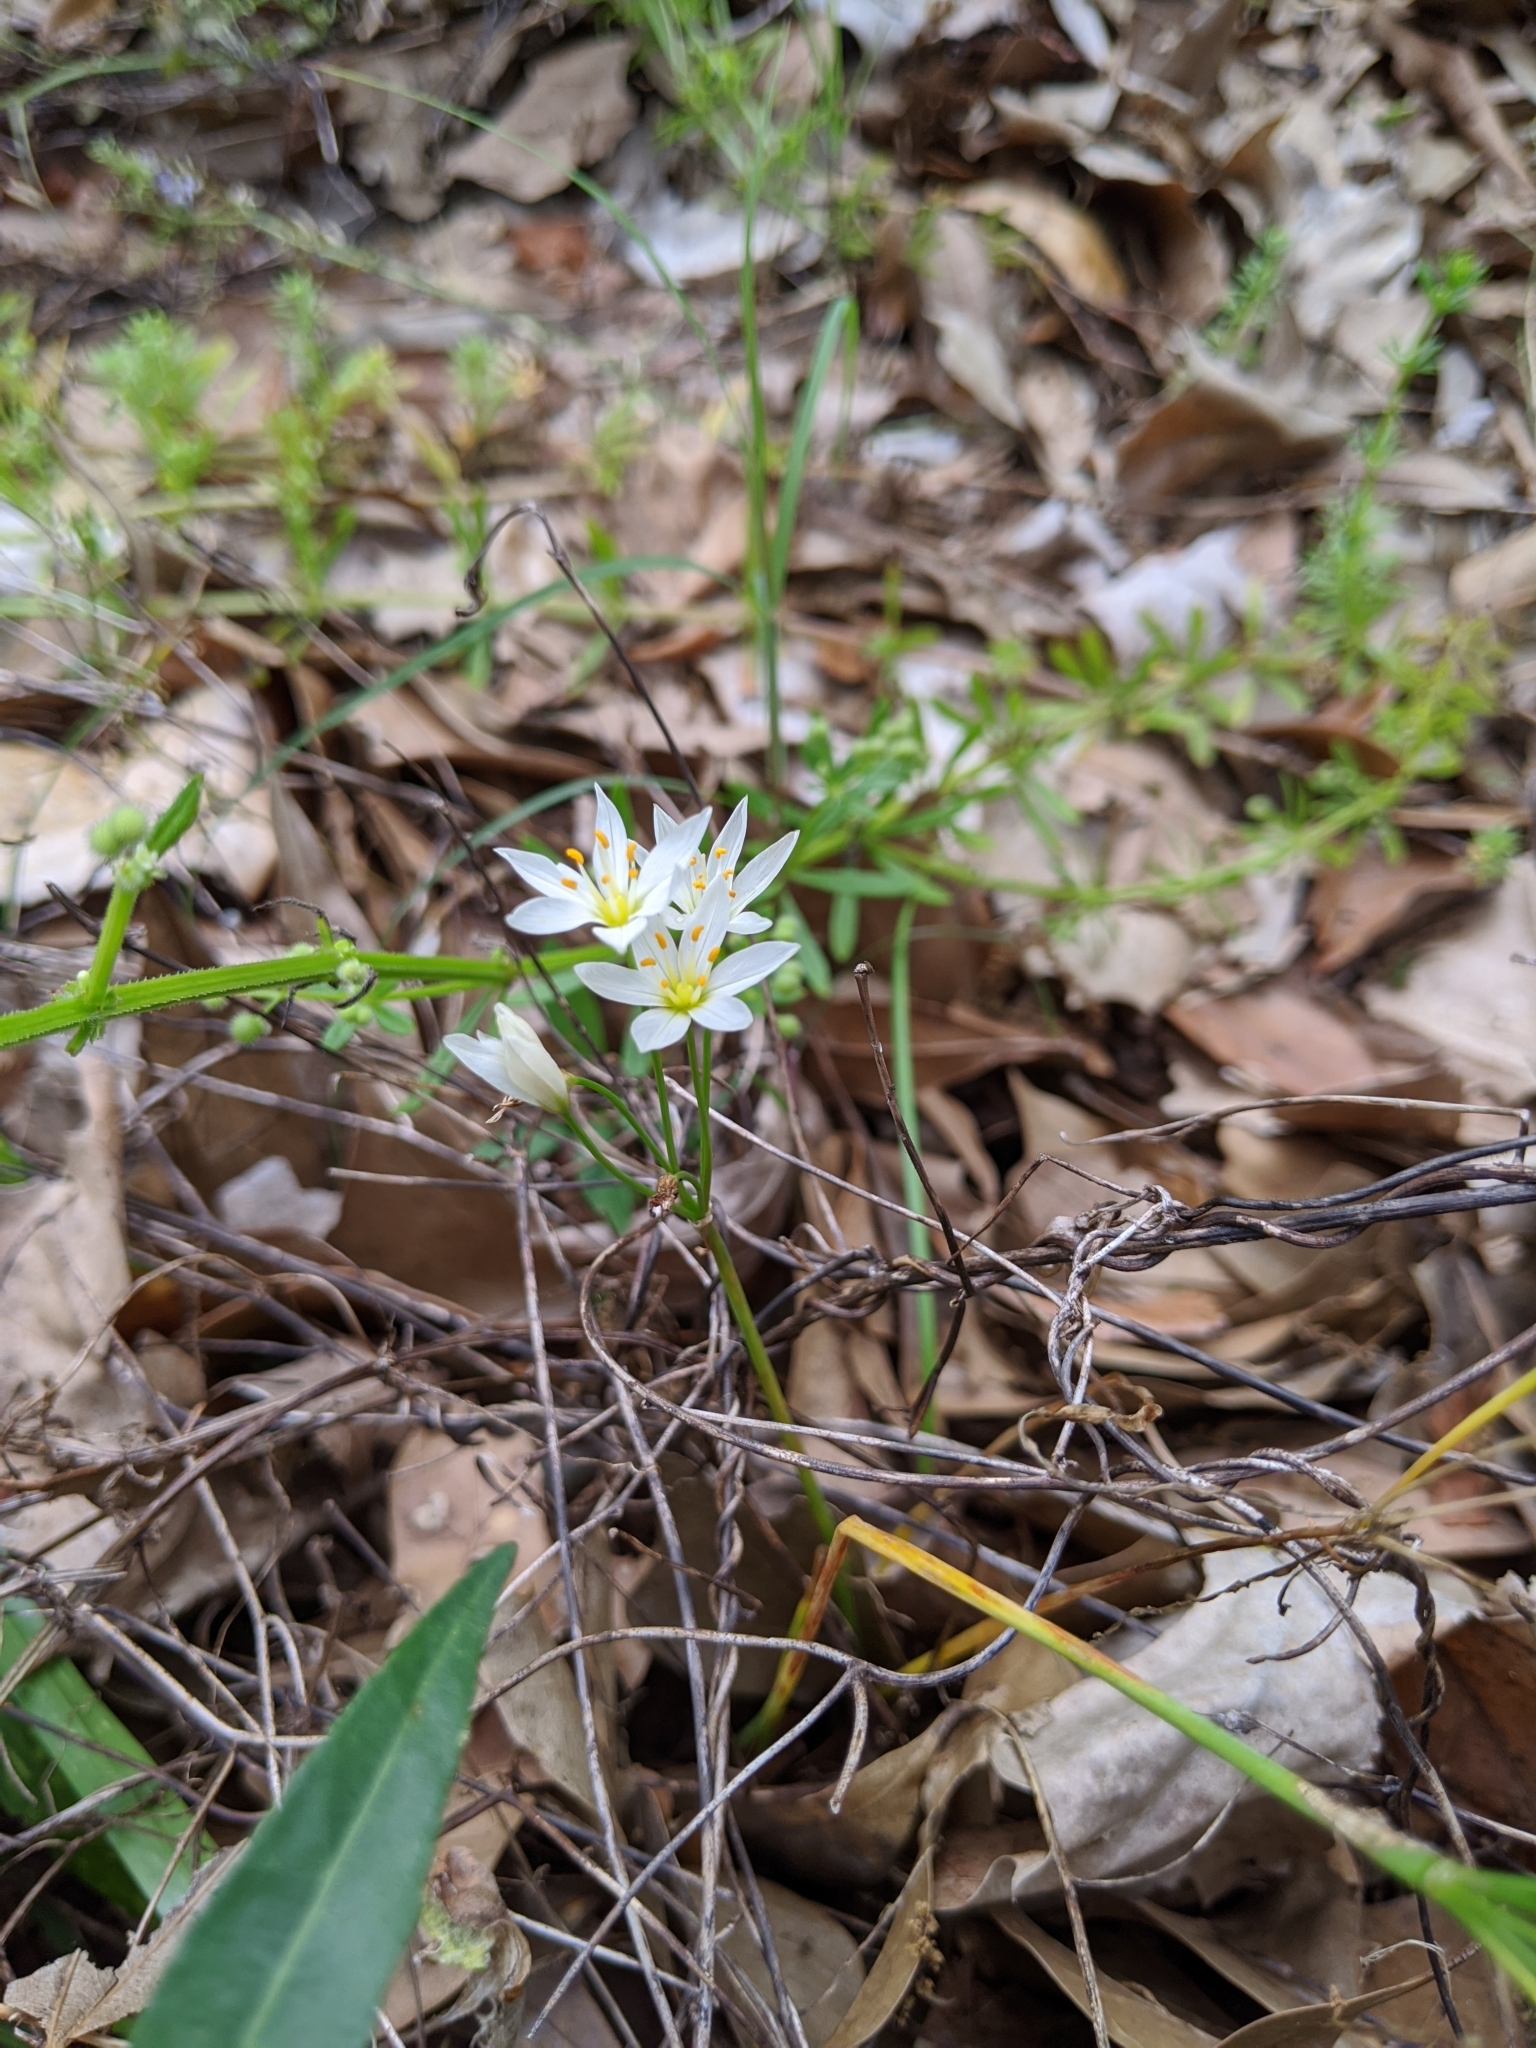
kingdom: Plantae
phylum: Tracheophyta
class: Liliopsida
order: Asparagales
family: Amaryllidaceae
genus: Nothoscordum
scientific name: Nothoscordum bivalve
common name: Crow-poison
